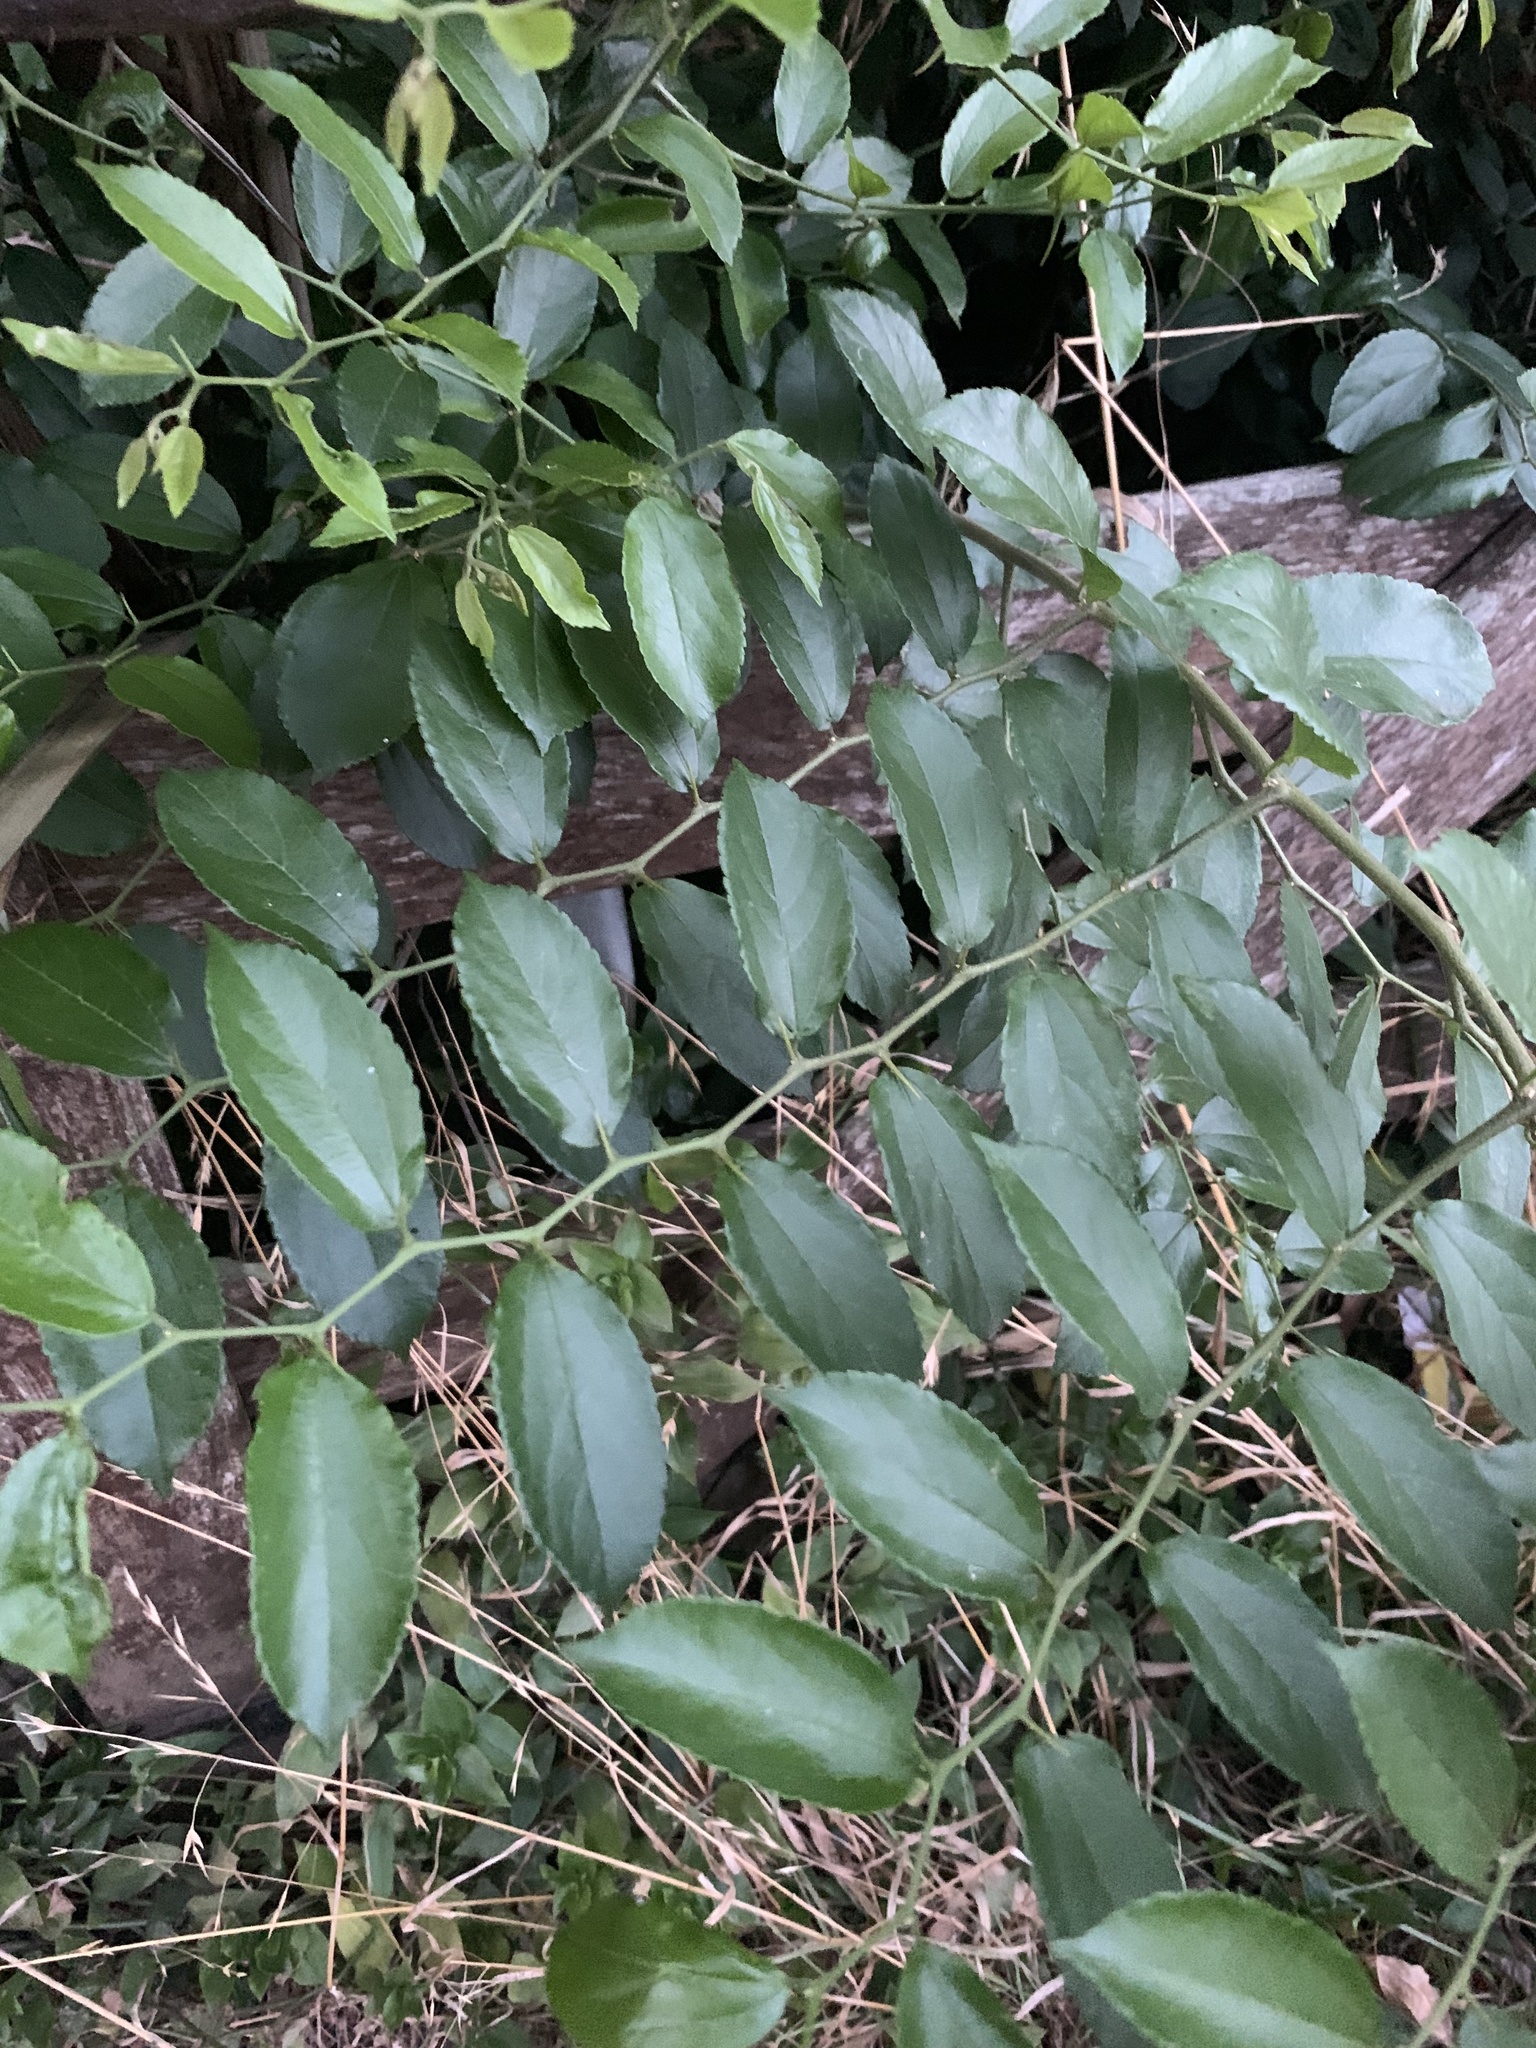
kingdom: Plantae
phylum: Tracheophyta
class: Magnoliopsida
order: Rosales
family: Cannabaceae
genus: Celtis
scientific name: Celtis iguanaea
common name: Iguana hackberry
